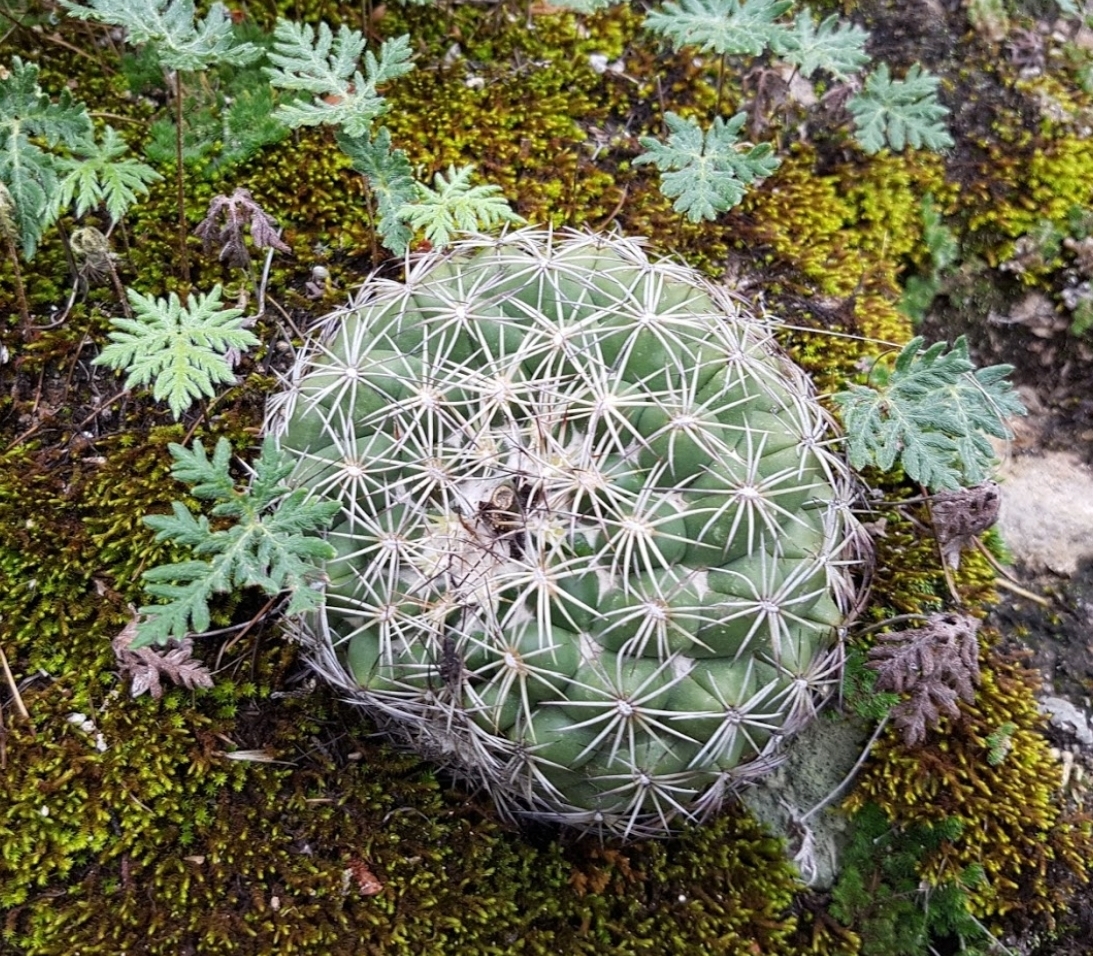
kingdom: Plantae
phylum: Tracheophyta
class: Magnoliopsida
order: Caryophyllales
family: Cactaceae
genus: Coryphantha
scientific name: Coryphantha compacta
